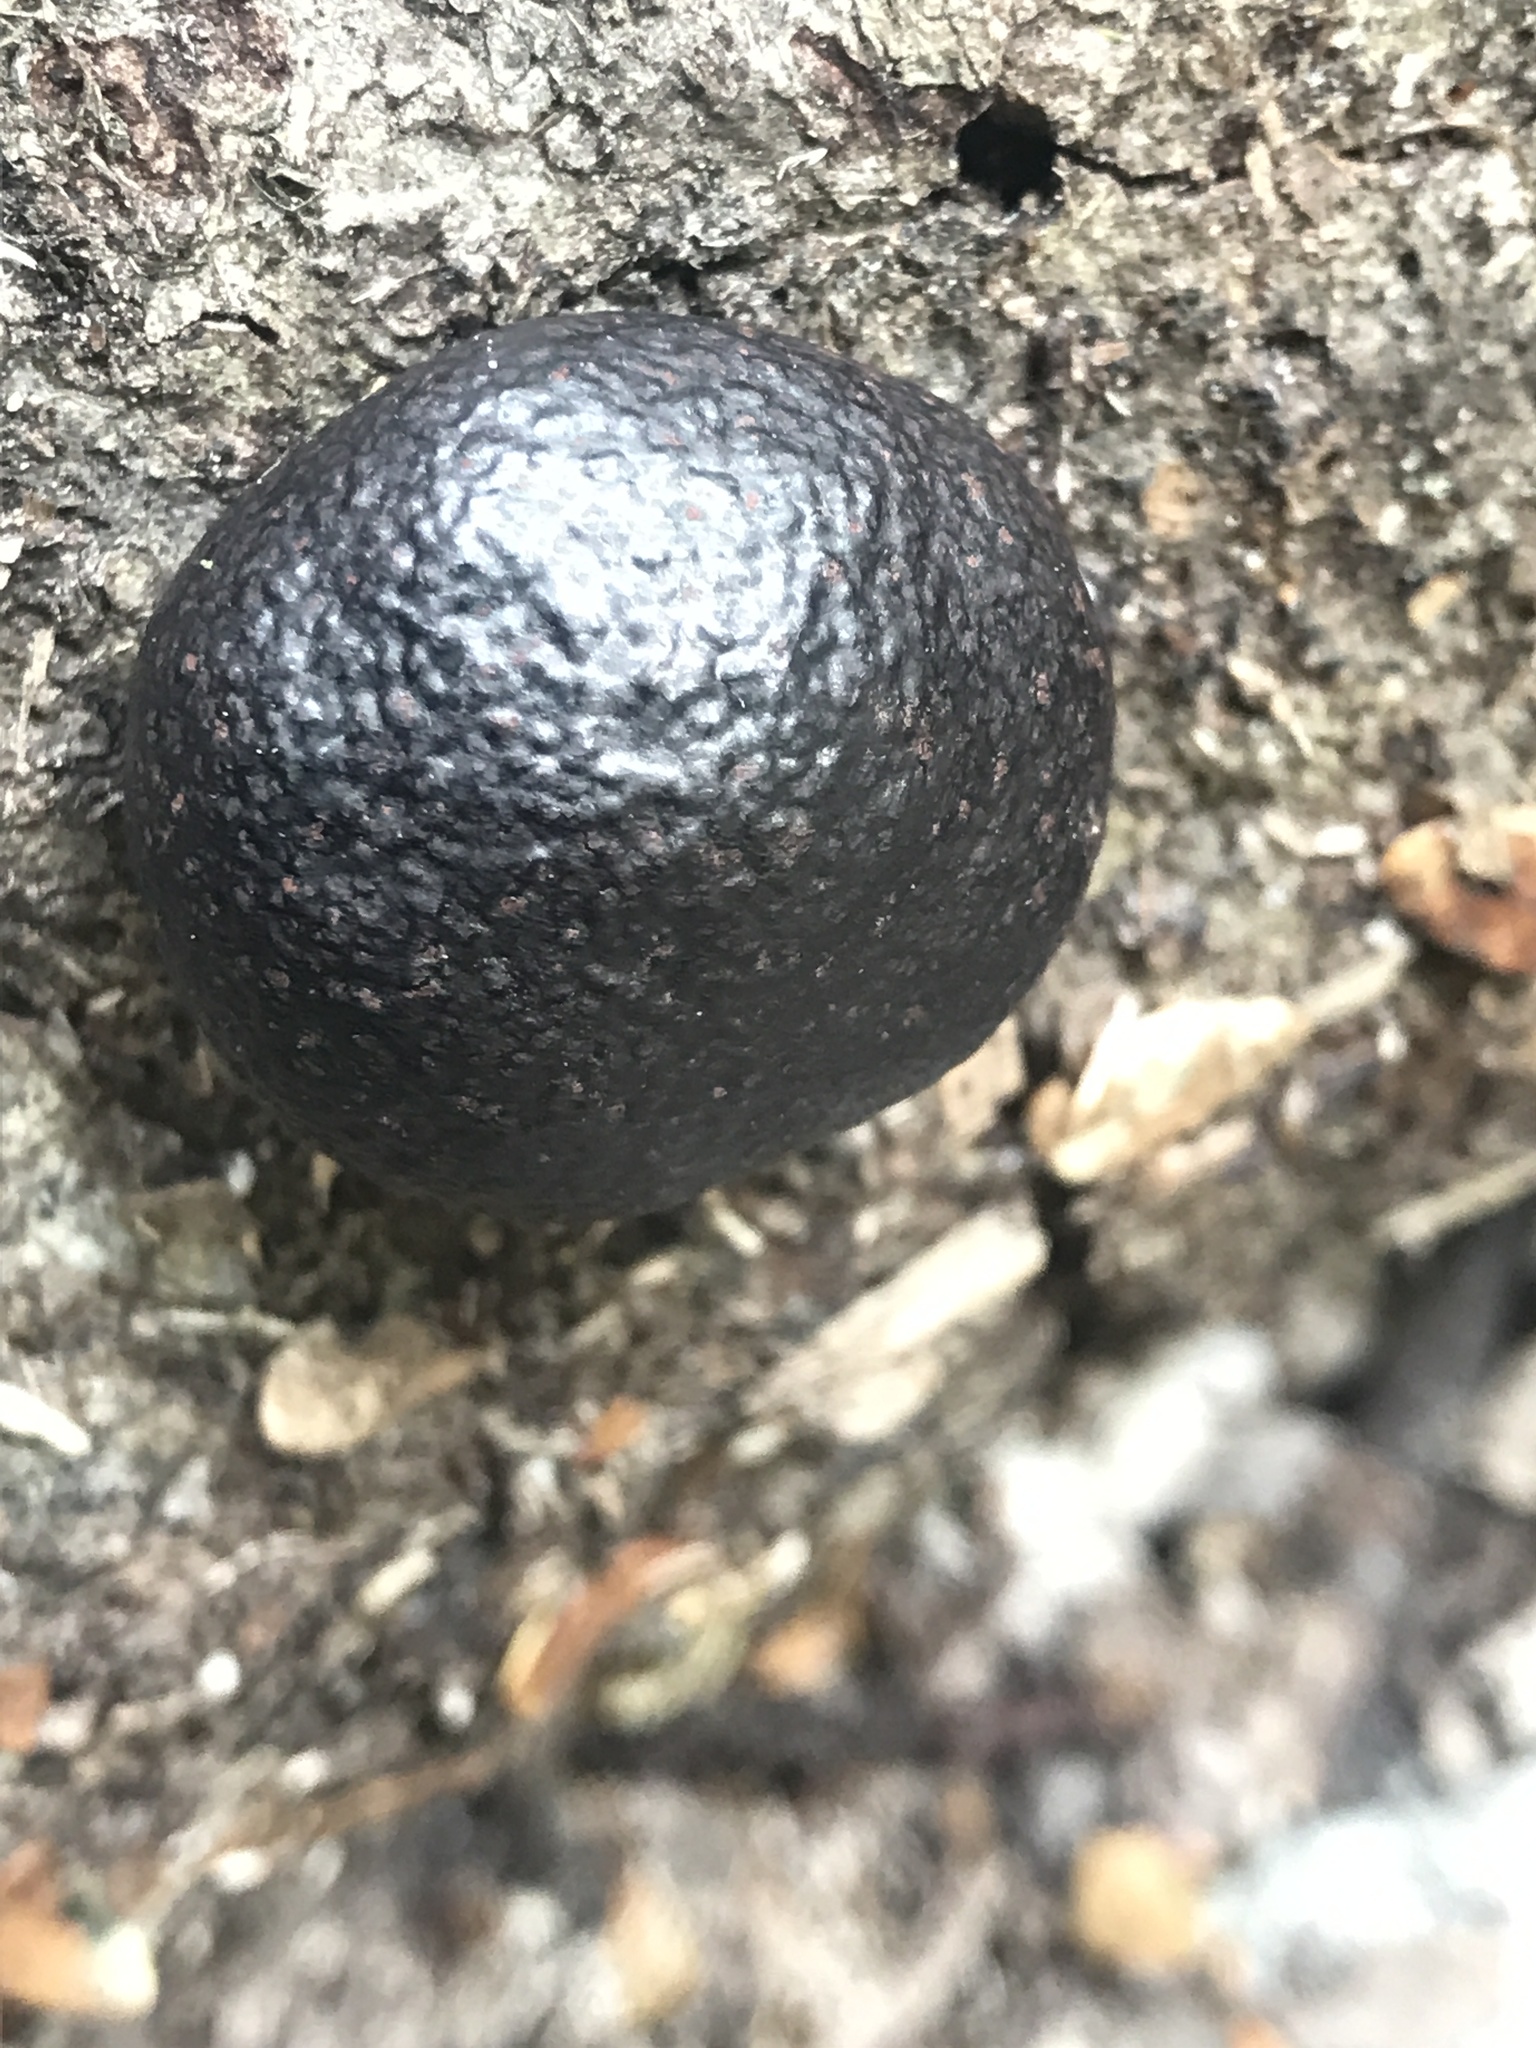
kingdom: Fungi
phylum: Ascomycota
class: Sordariomycetes
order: Xylariales
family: Hypoxylaceae
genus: Daldinia
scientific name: Daldinia
